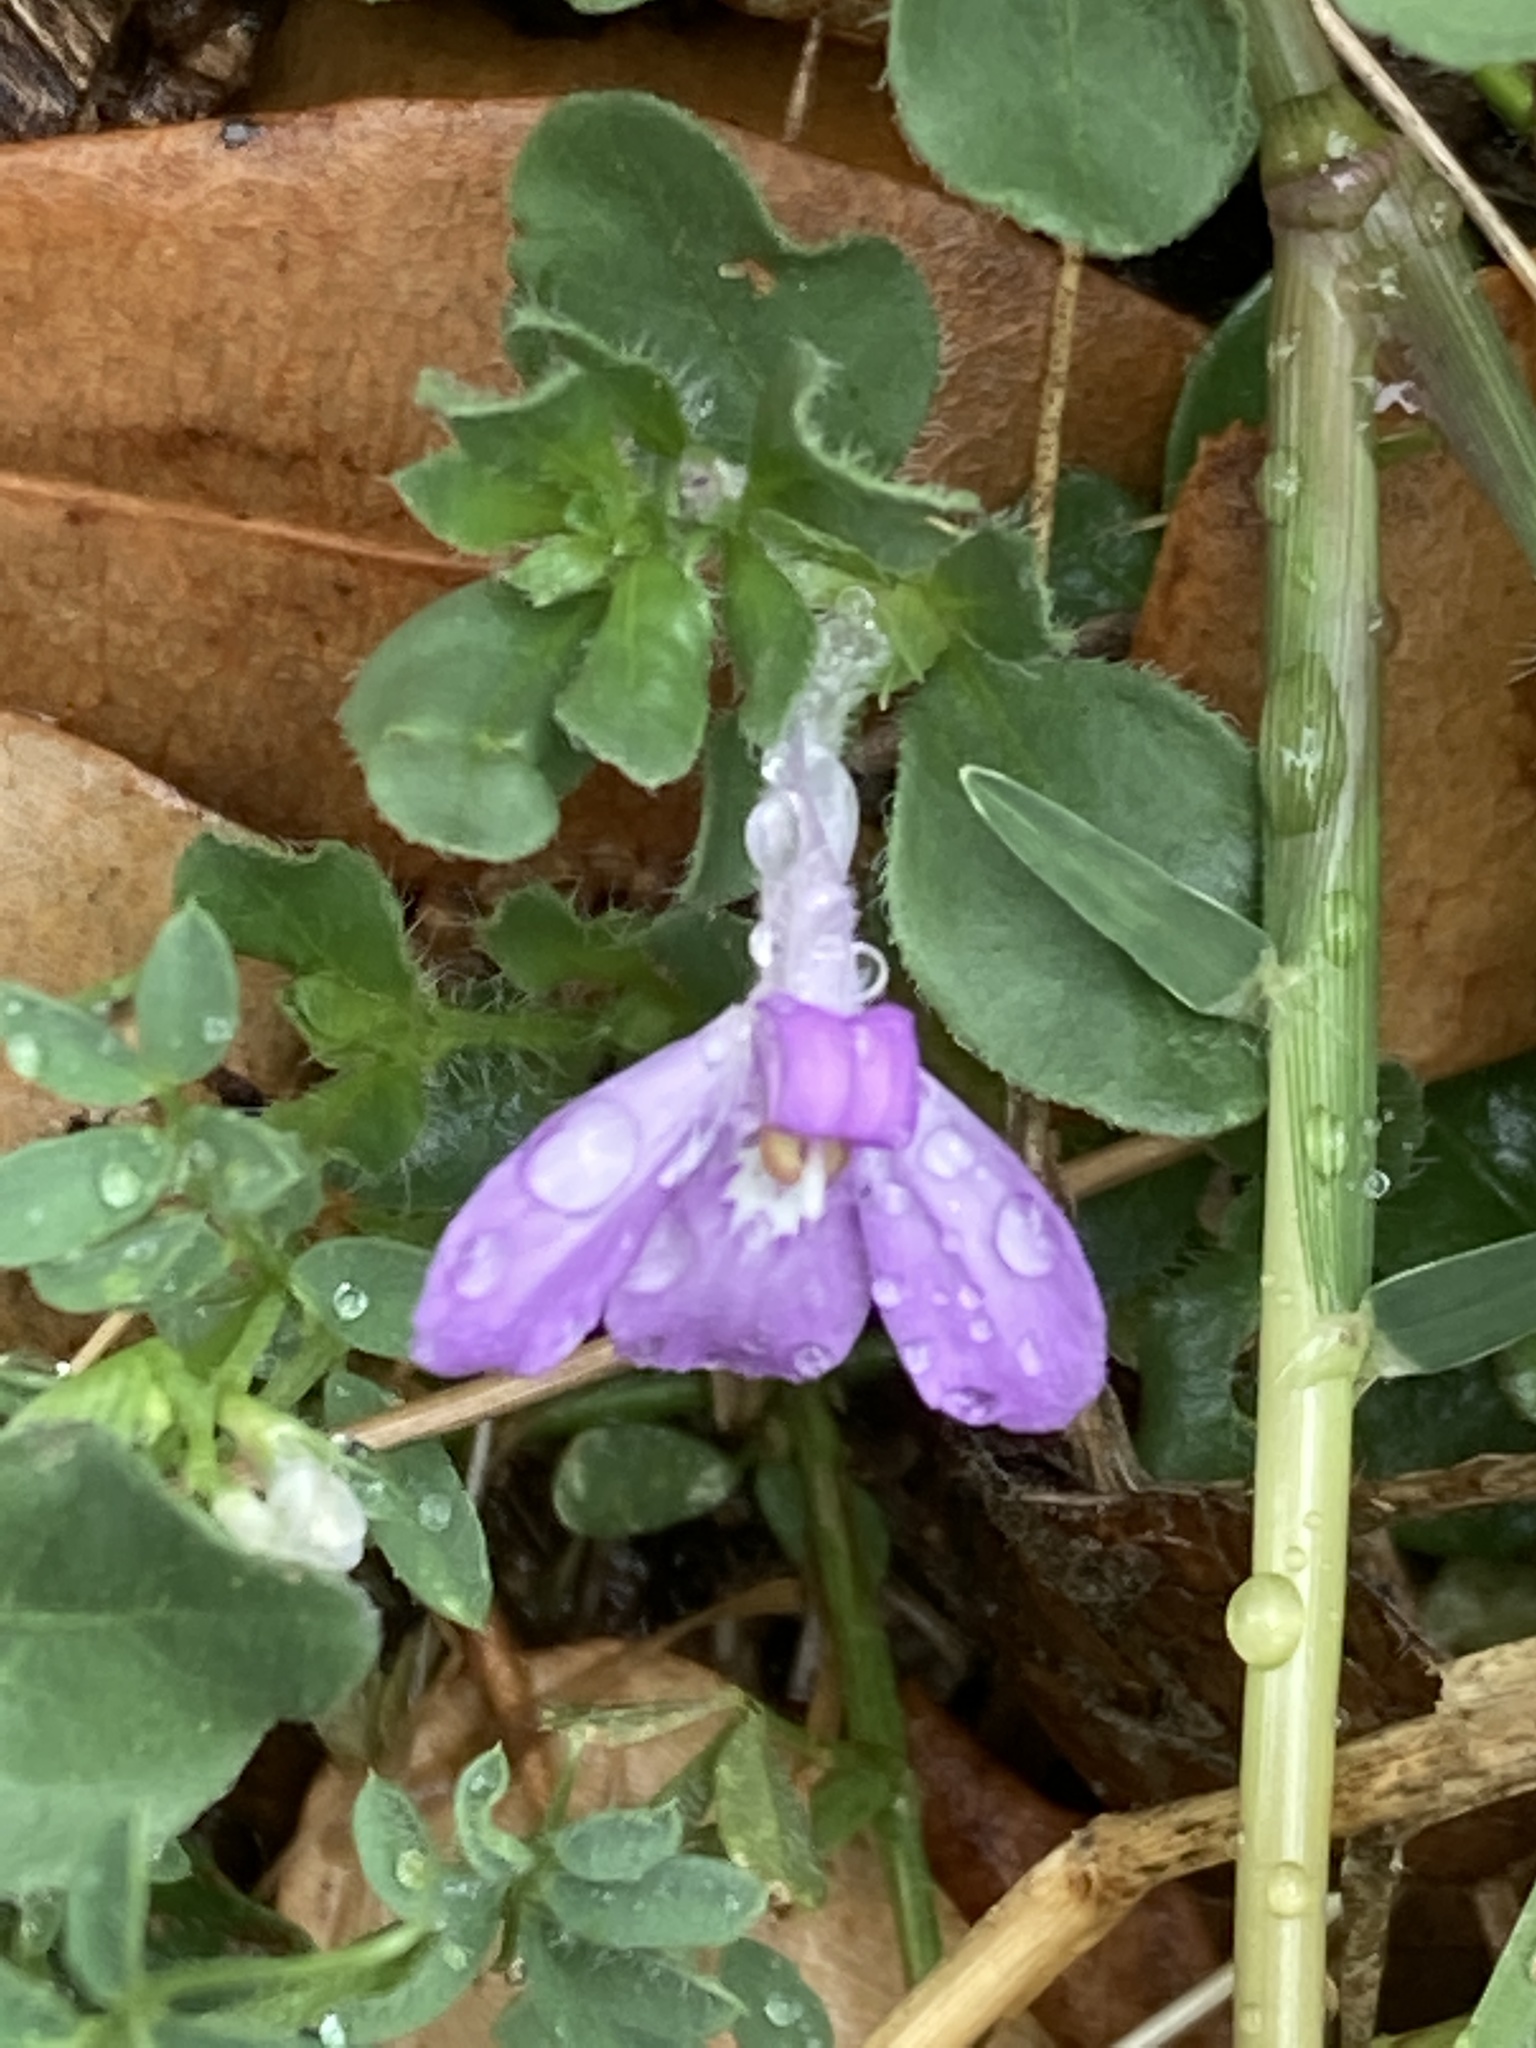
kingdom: Plantae
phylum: Tracheophyta
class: Magnoliopsida
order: Lamiales
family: Acanthaceae
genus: Justicia
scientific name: Justicia pilosella
